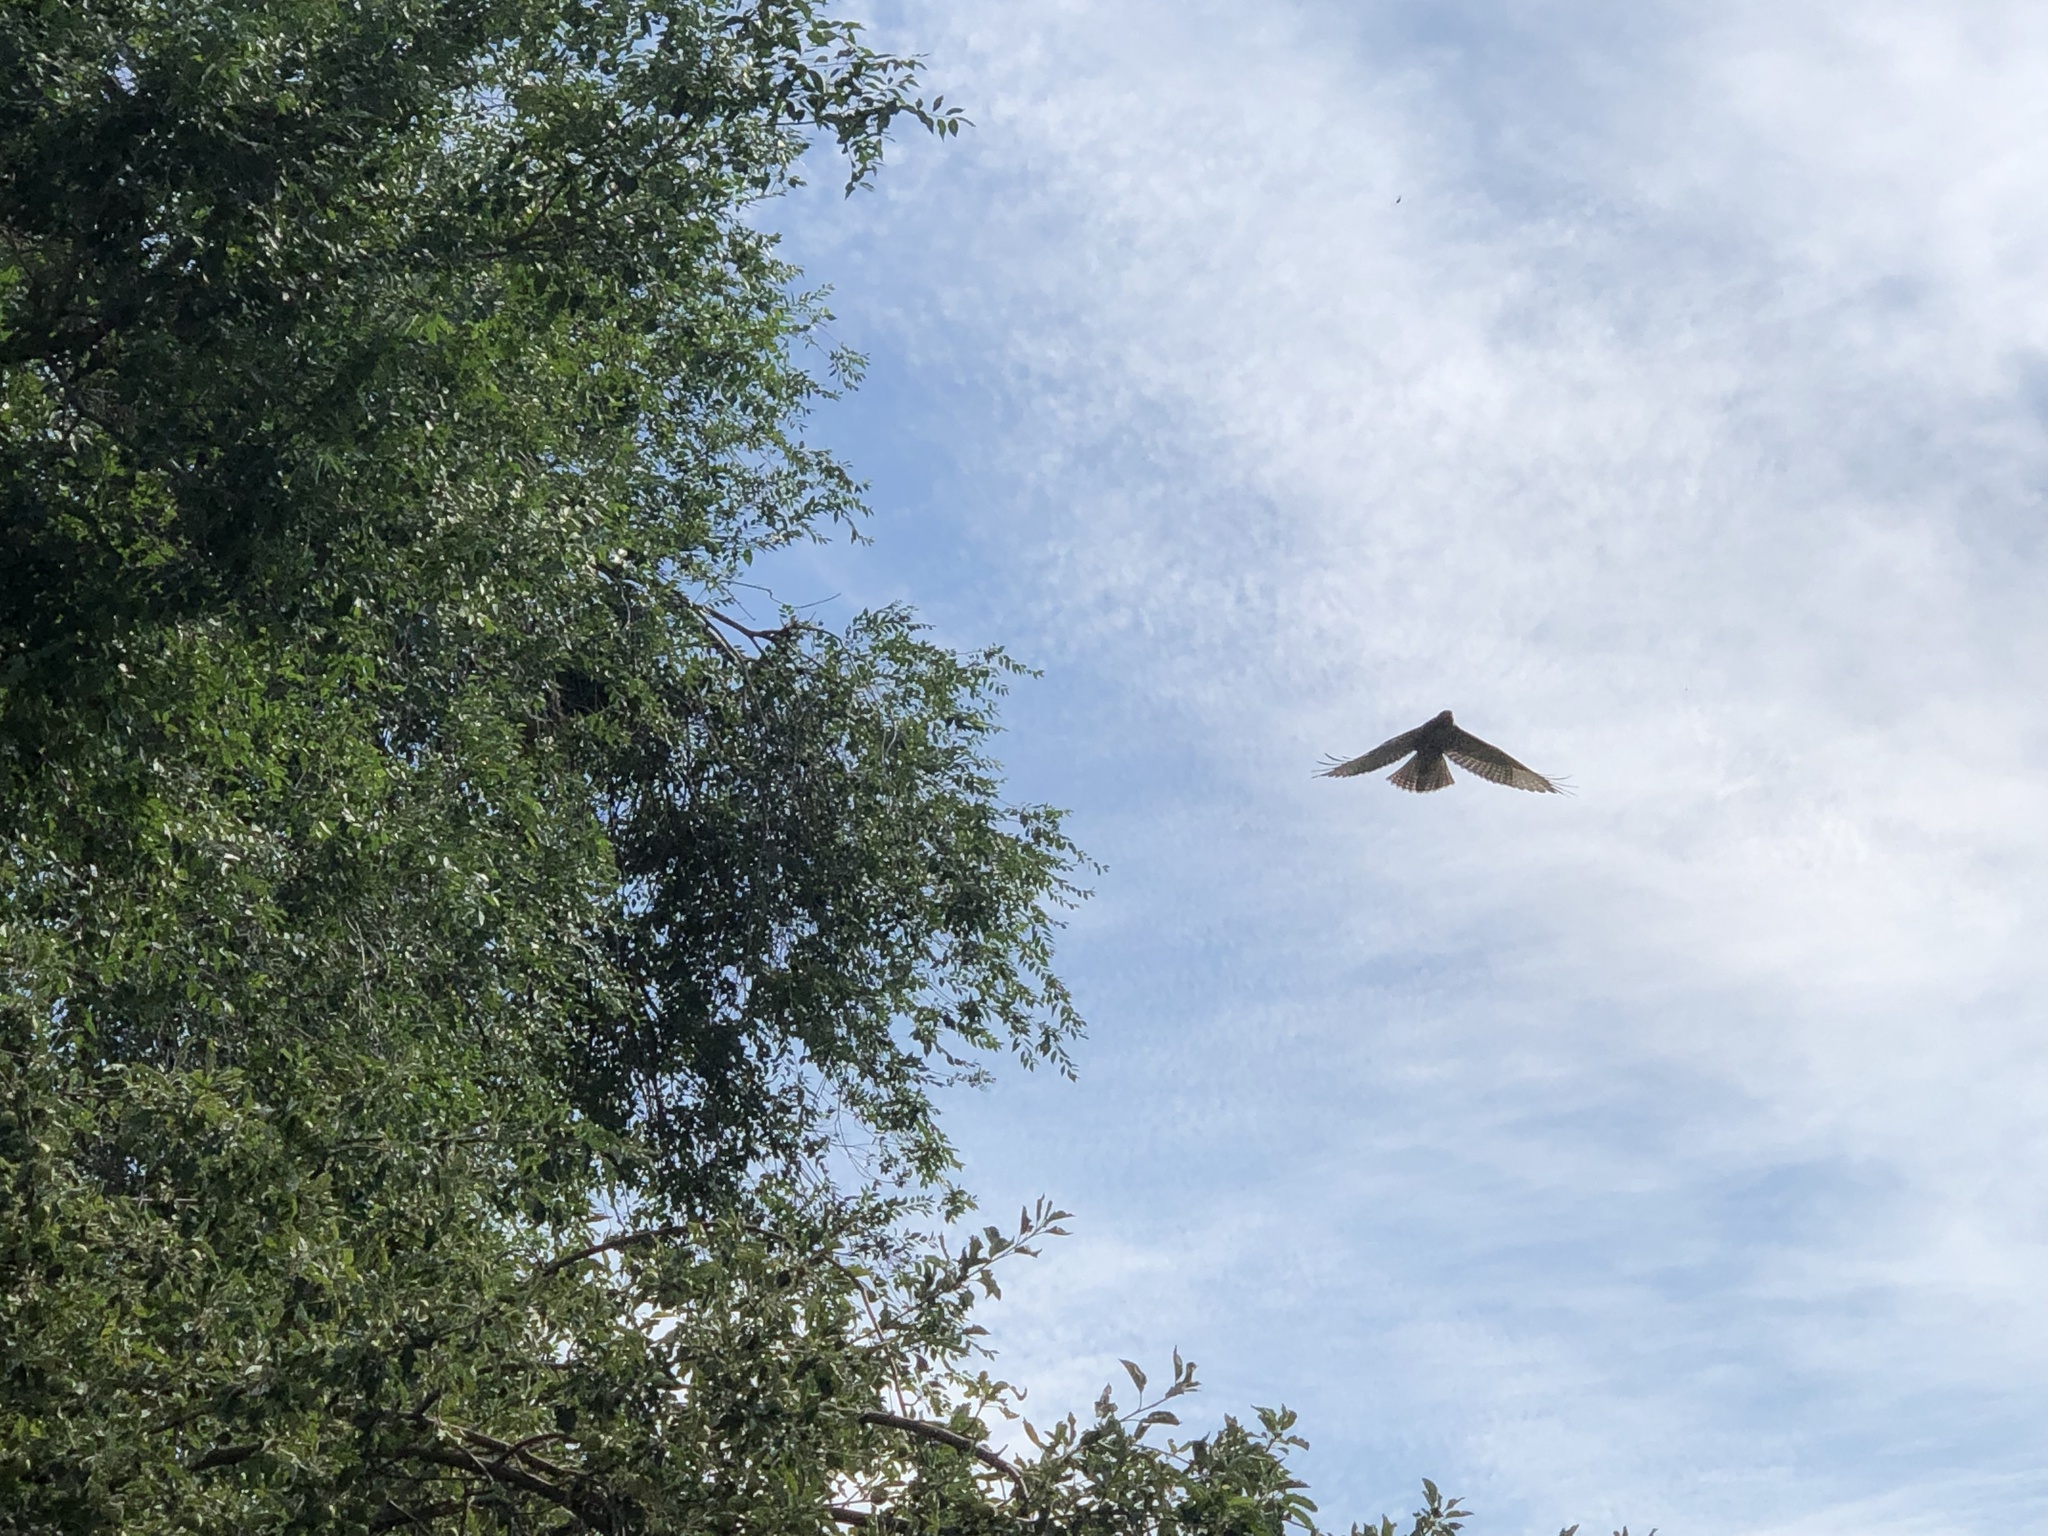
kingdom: Animalia
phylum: Chordata
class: Aves
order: Accipitriformes
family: Accipitridae
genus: Buteo
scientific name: Buteo jamaicensis
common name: Red-tailed hawk
